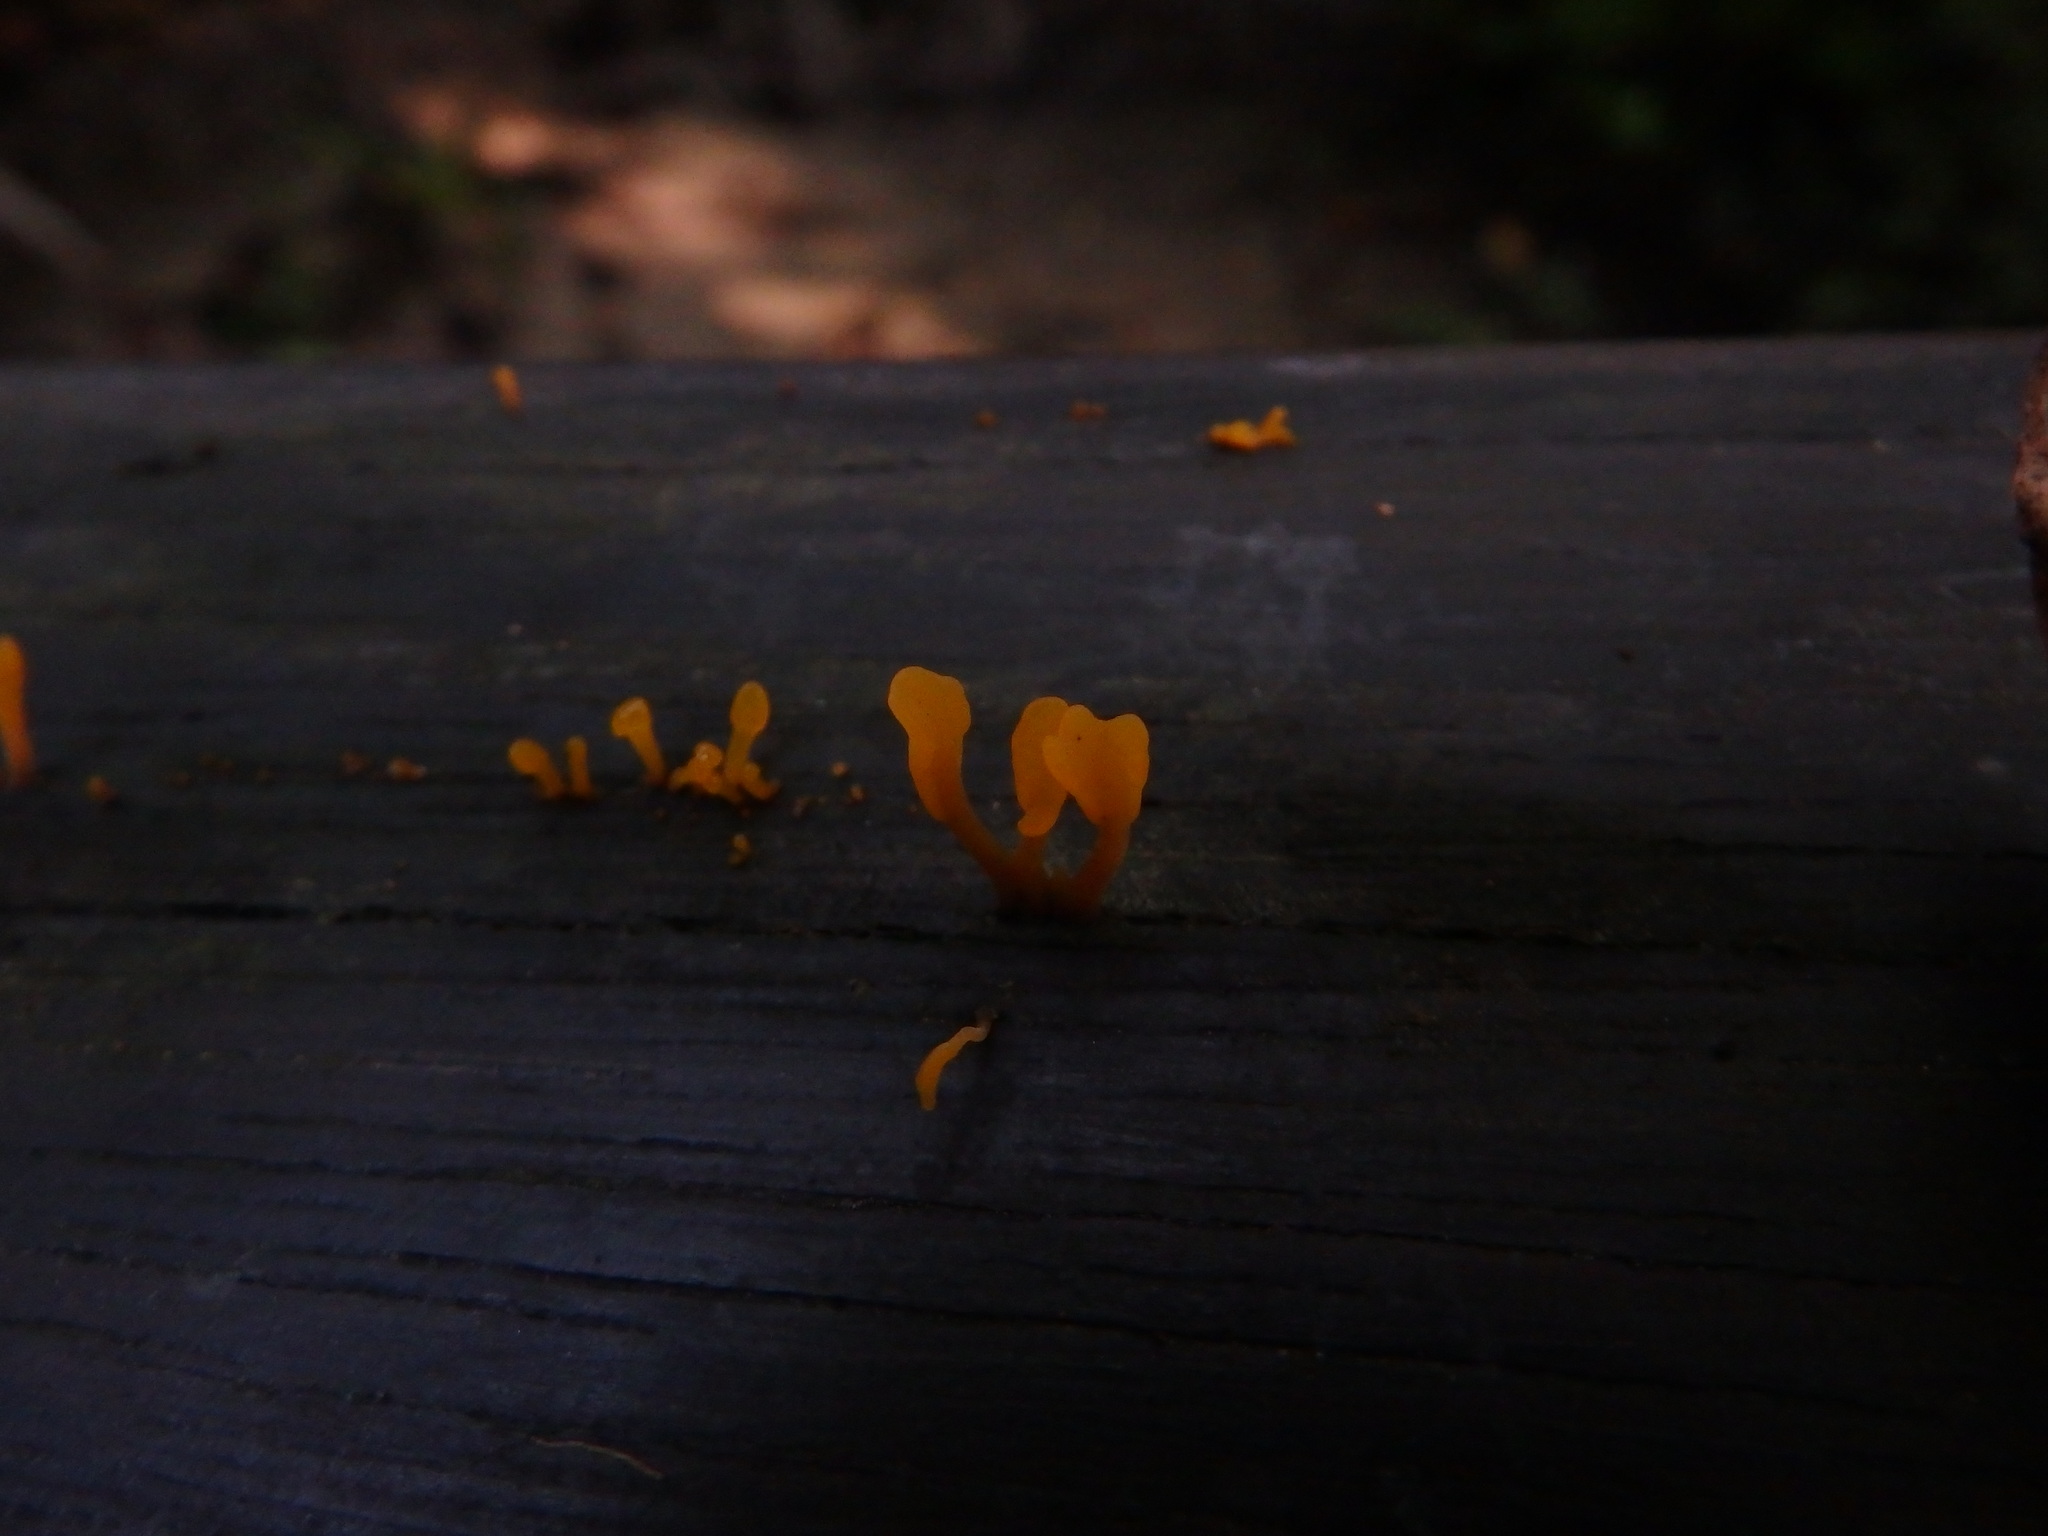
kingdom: Fungi
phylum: Basidiomycota
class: Dacrymycetes
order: Dacrymycetales
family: Dacrymycetaceae
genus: Dacrymyces
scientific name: Dacrymyces spathularius
